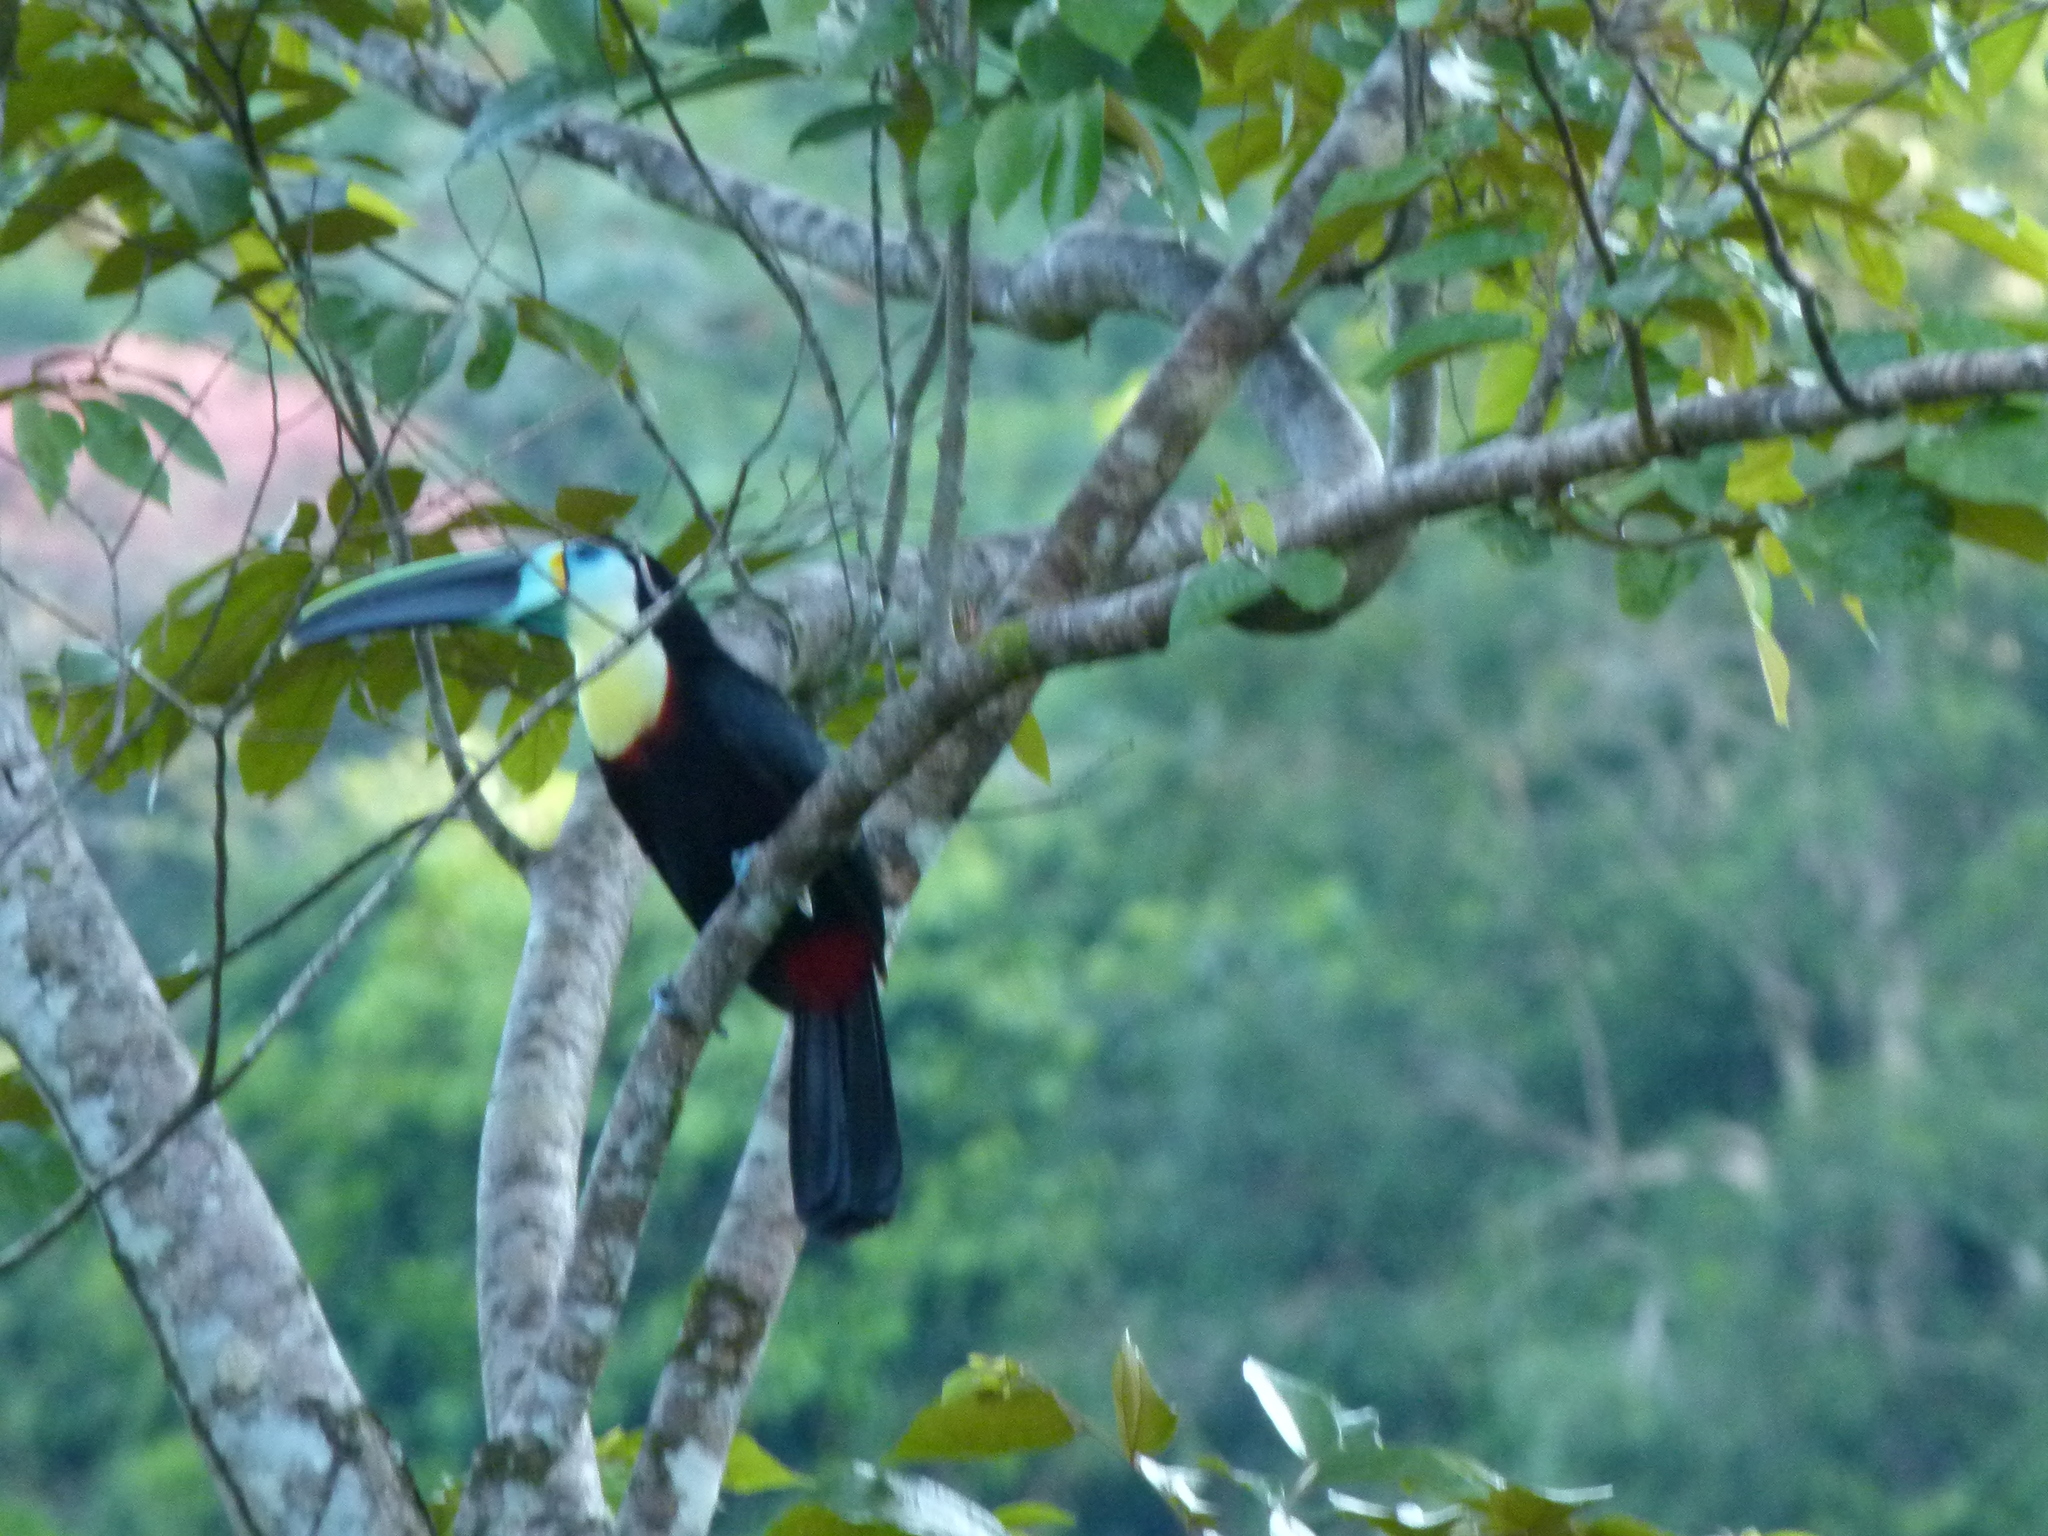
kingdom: Animalia
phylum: Chordata
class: Aves
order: Piciformes
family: Ramphastidae
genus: Ramphastos
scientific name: Ramphastos citreolaemus
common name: Citron-throated toucan
